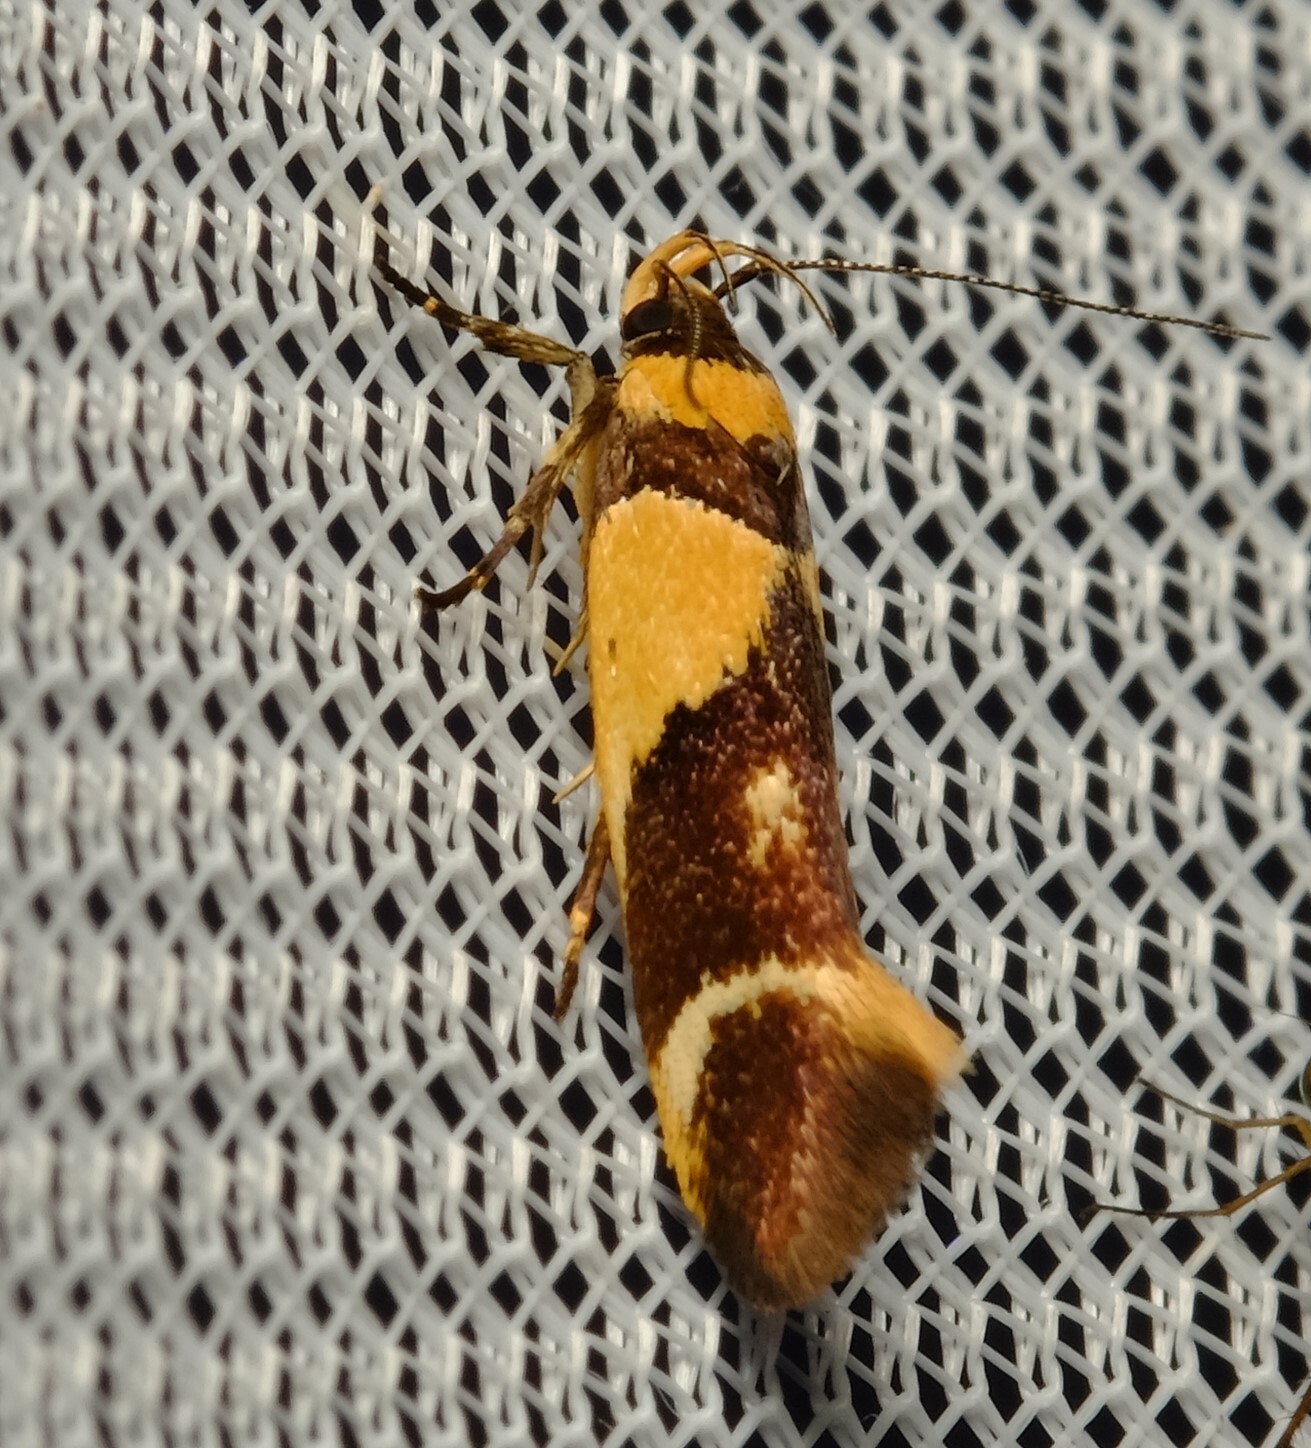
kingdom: Animalia
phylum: Arthropoda
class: Insecta
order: Lepidoptera
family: Cosmopterigidae
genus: Macrobathra
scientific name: Macrobathra chrysotoxa
